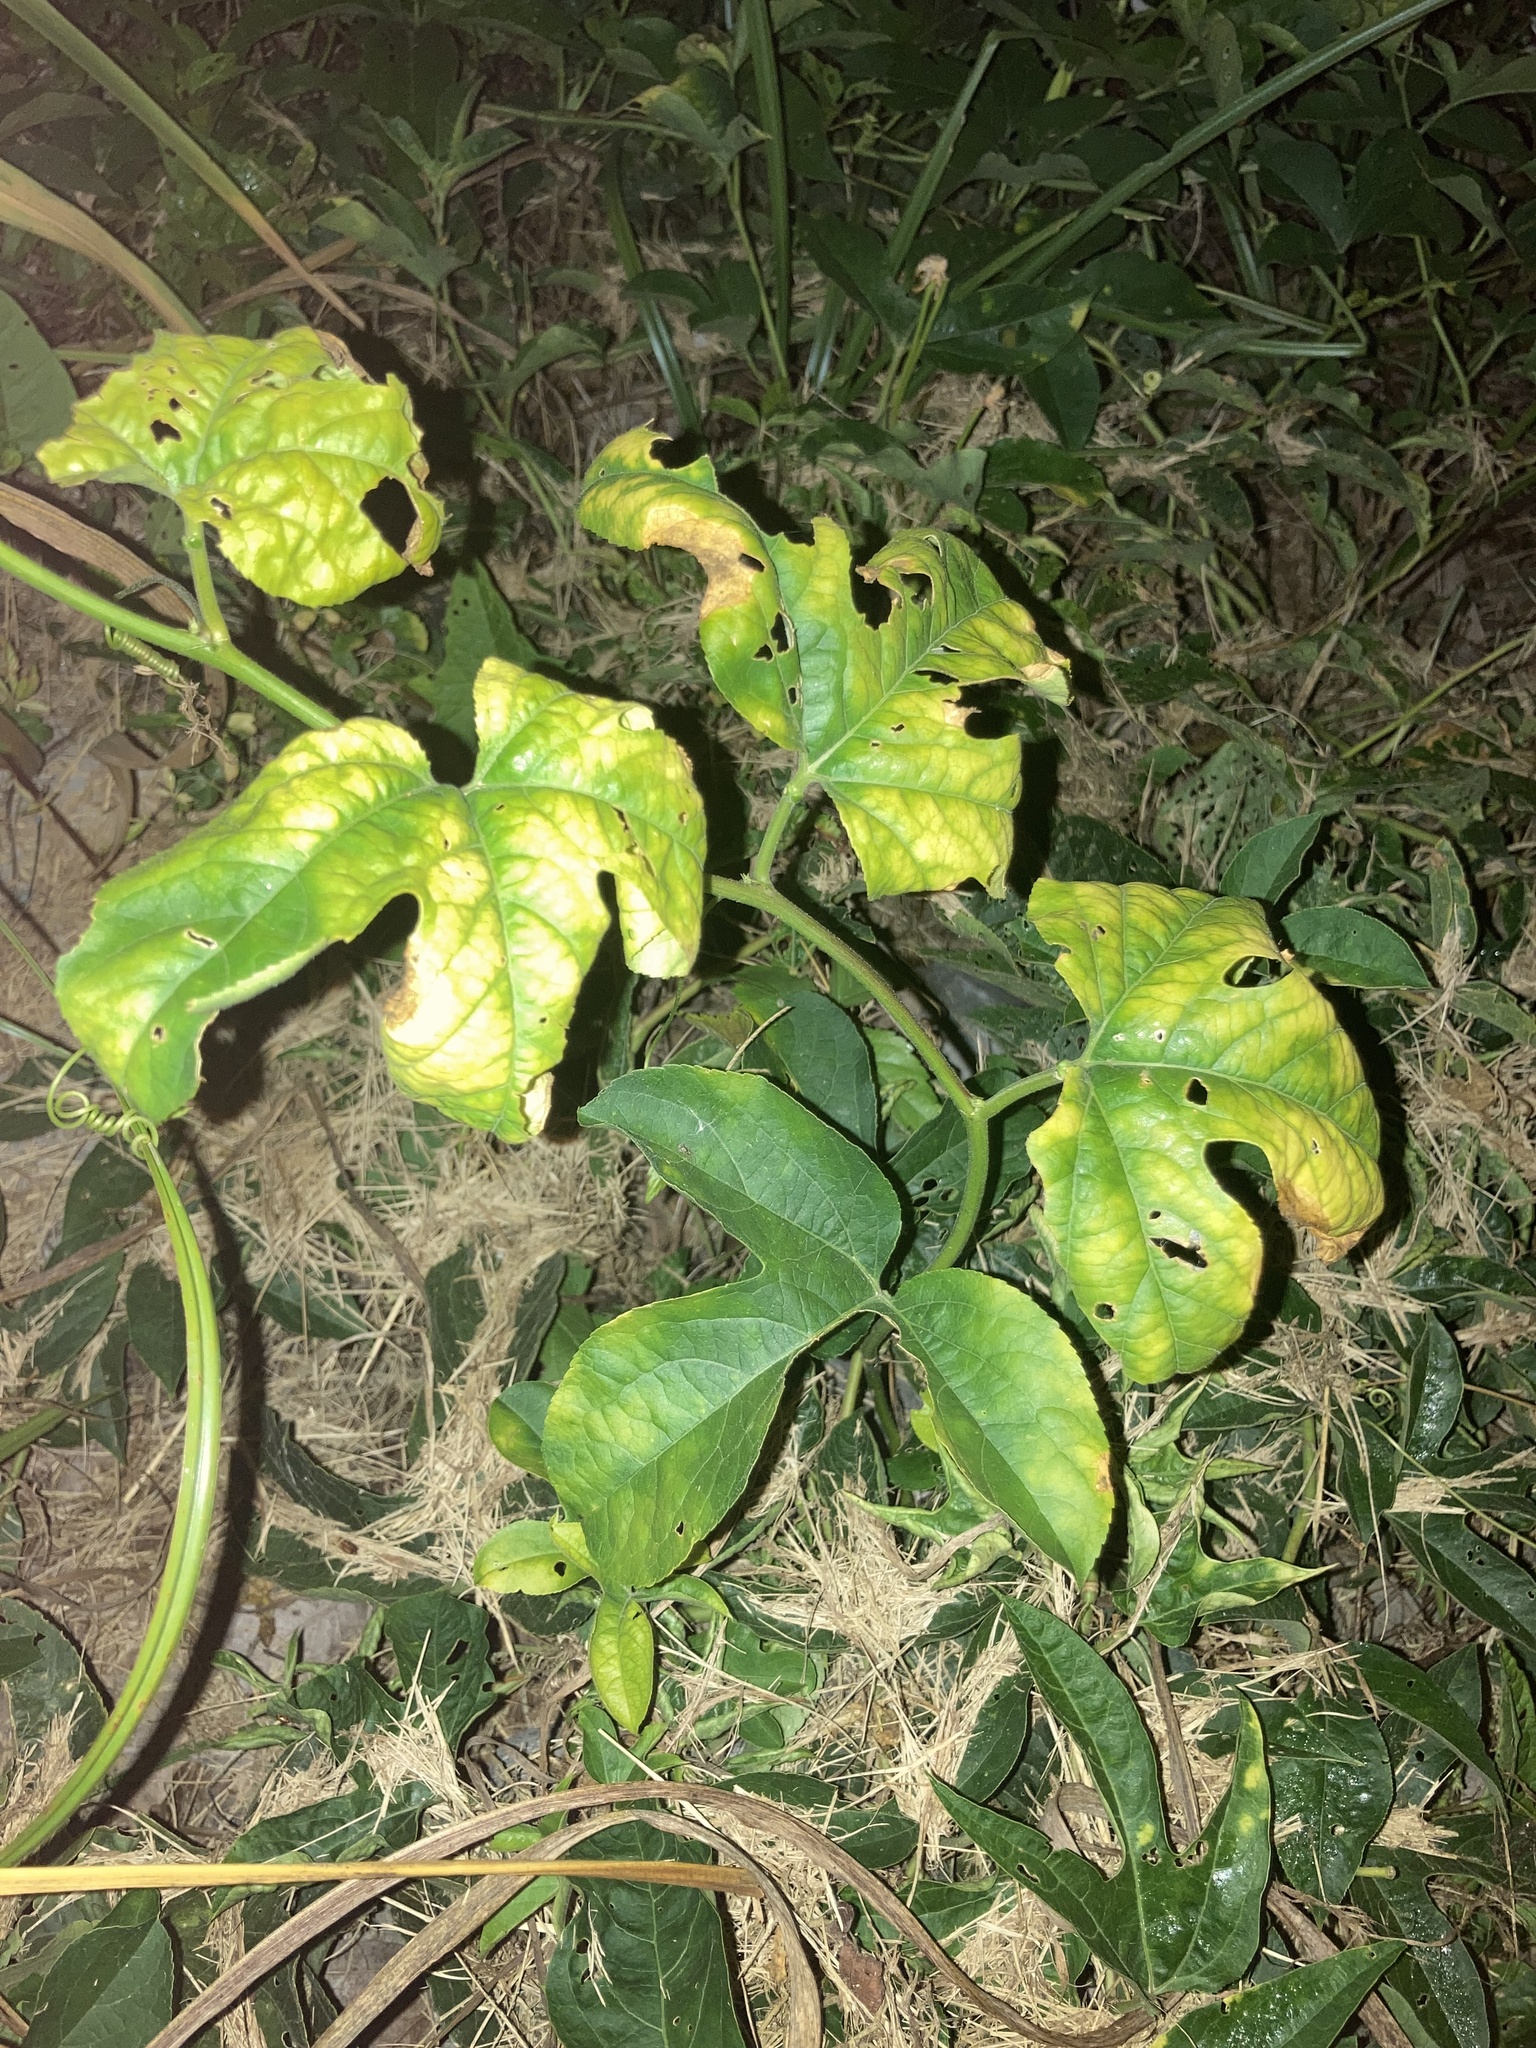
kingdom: Plantae
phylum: Tracheophyta
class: Magnoliopsida
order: Malpighiales
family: Passifloraceae
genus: Passiflora
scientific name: Passiflora incarnata
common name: Apricot-vine
